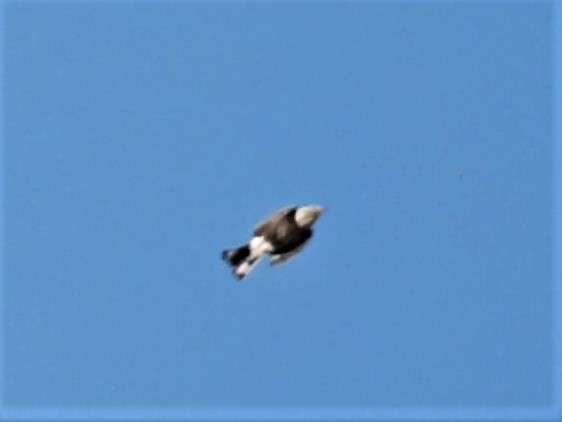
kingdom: Animalia
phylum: Chordata
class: Aves
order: Passeriformes
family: Corvidae
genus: Nucifraga
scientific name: Nucifraga columbiana
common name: Clark's nutcracker
